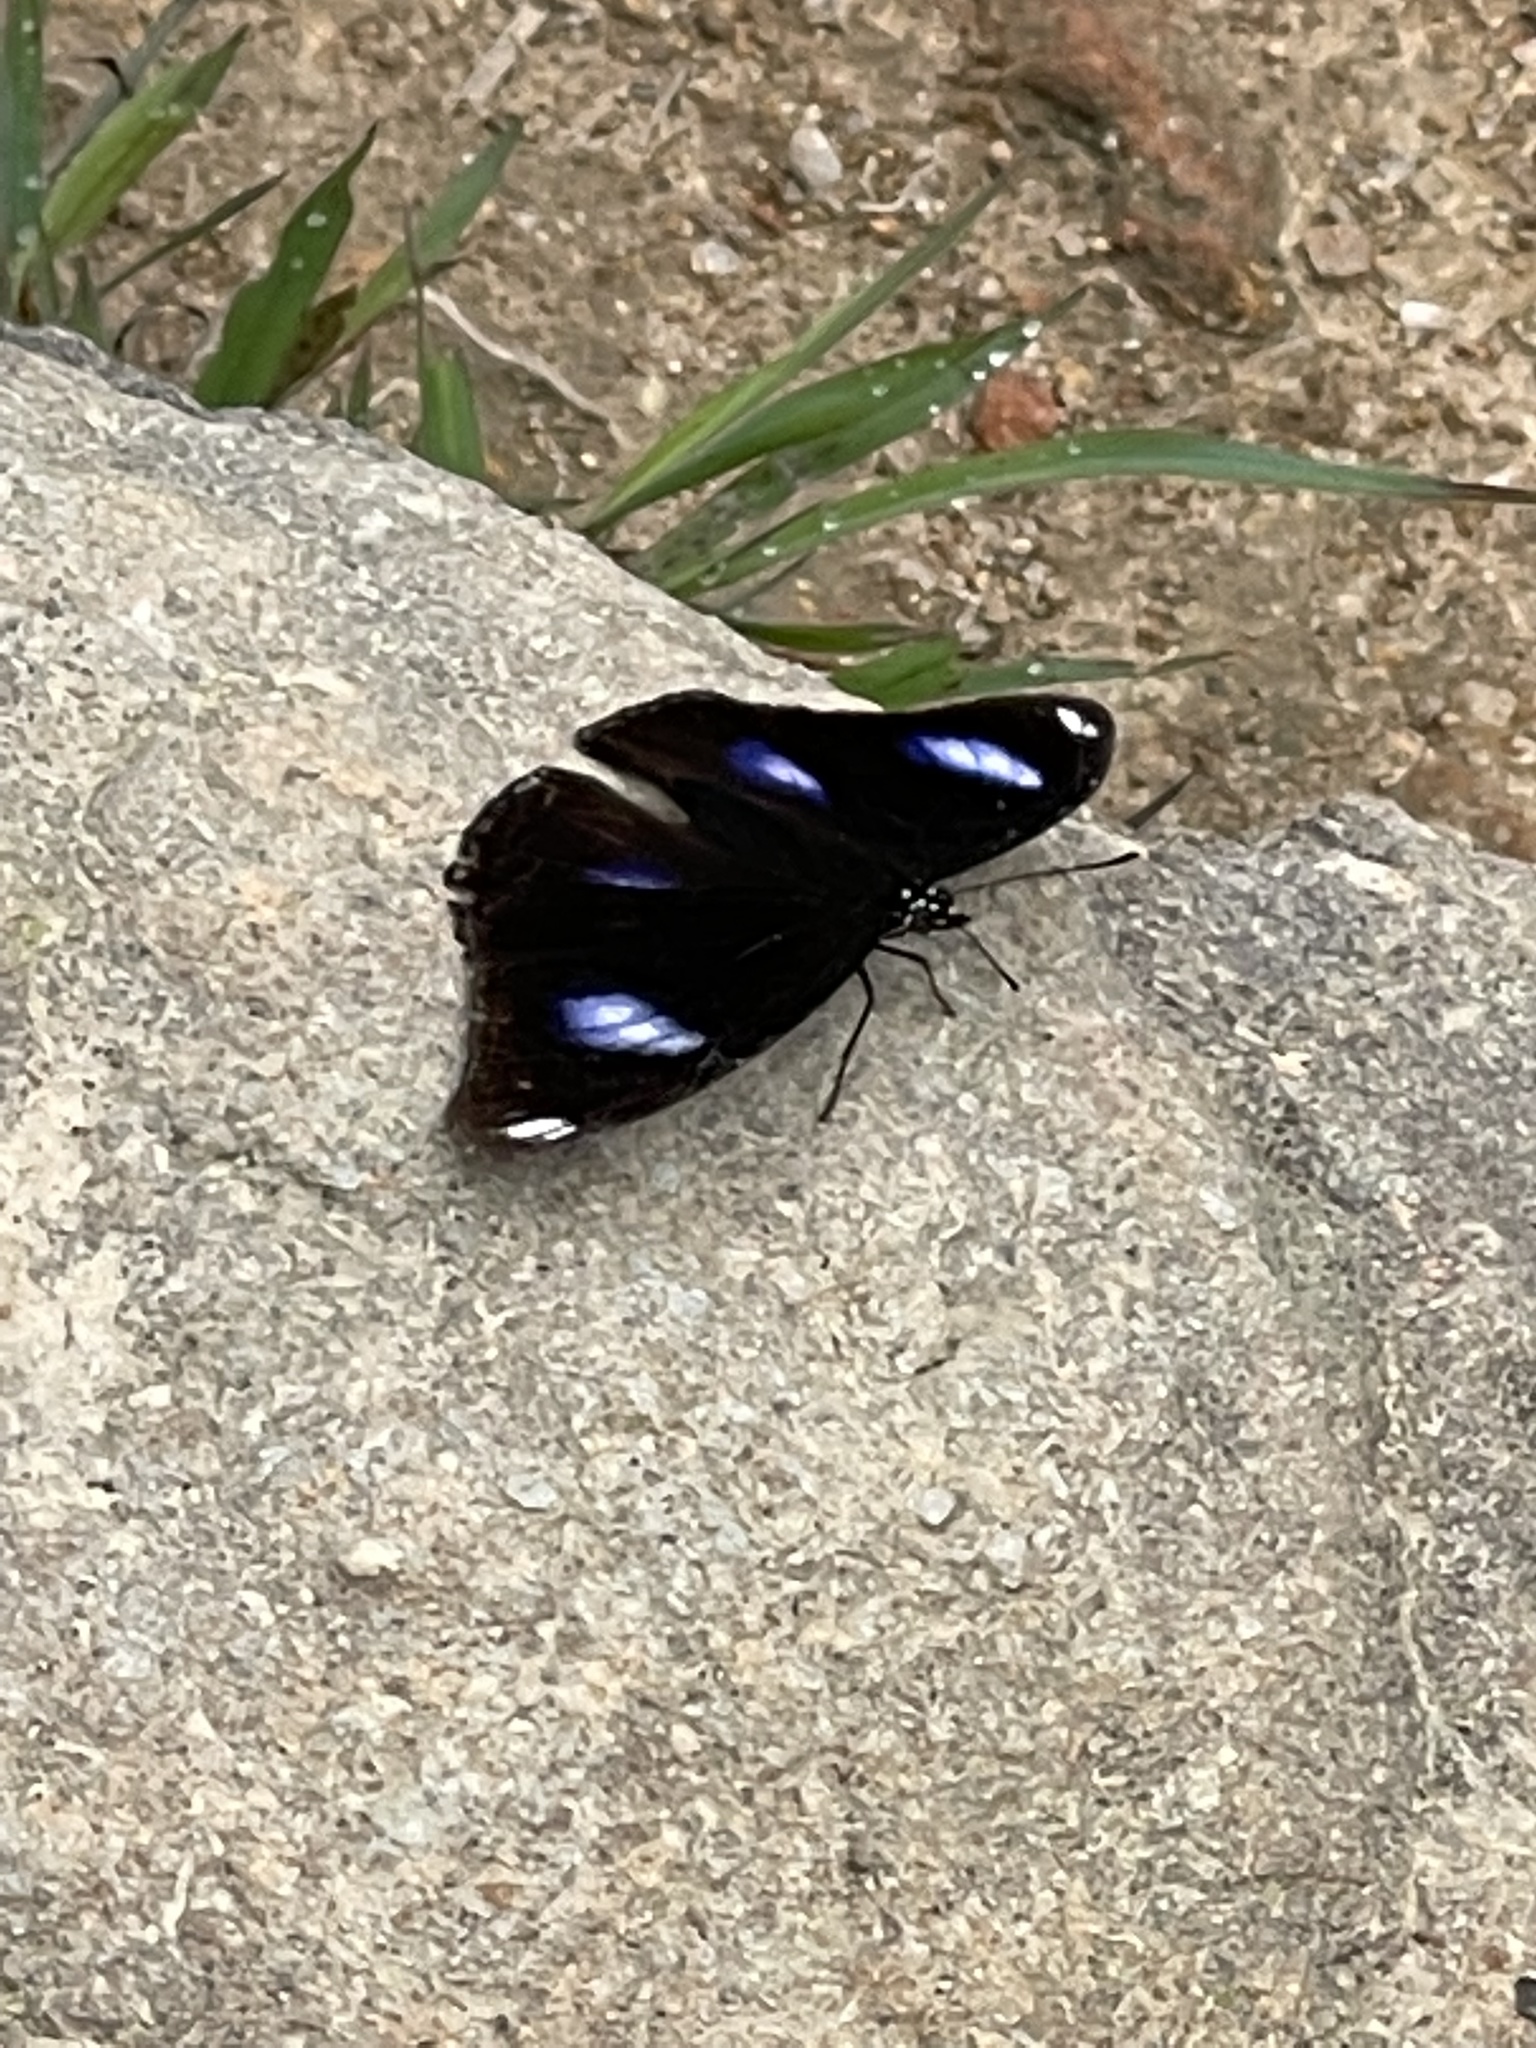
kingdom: Animalia
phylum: Arthropoda
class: Insecta
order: Lepidoptera
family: Nymphalidae
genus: Hypolimnas
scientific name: Hypolimnas bolina
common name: Great eggfly
